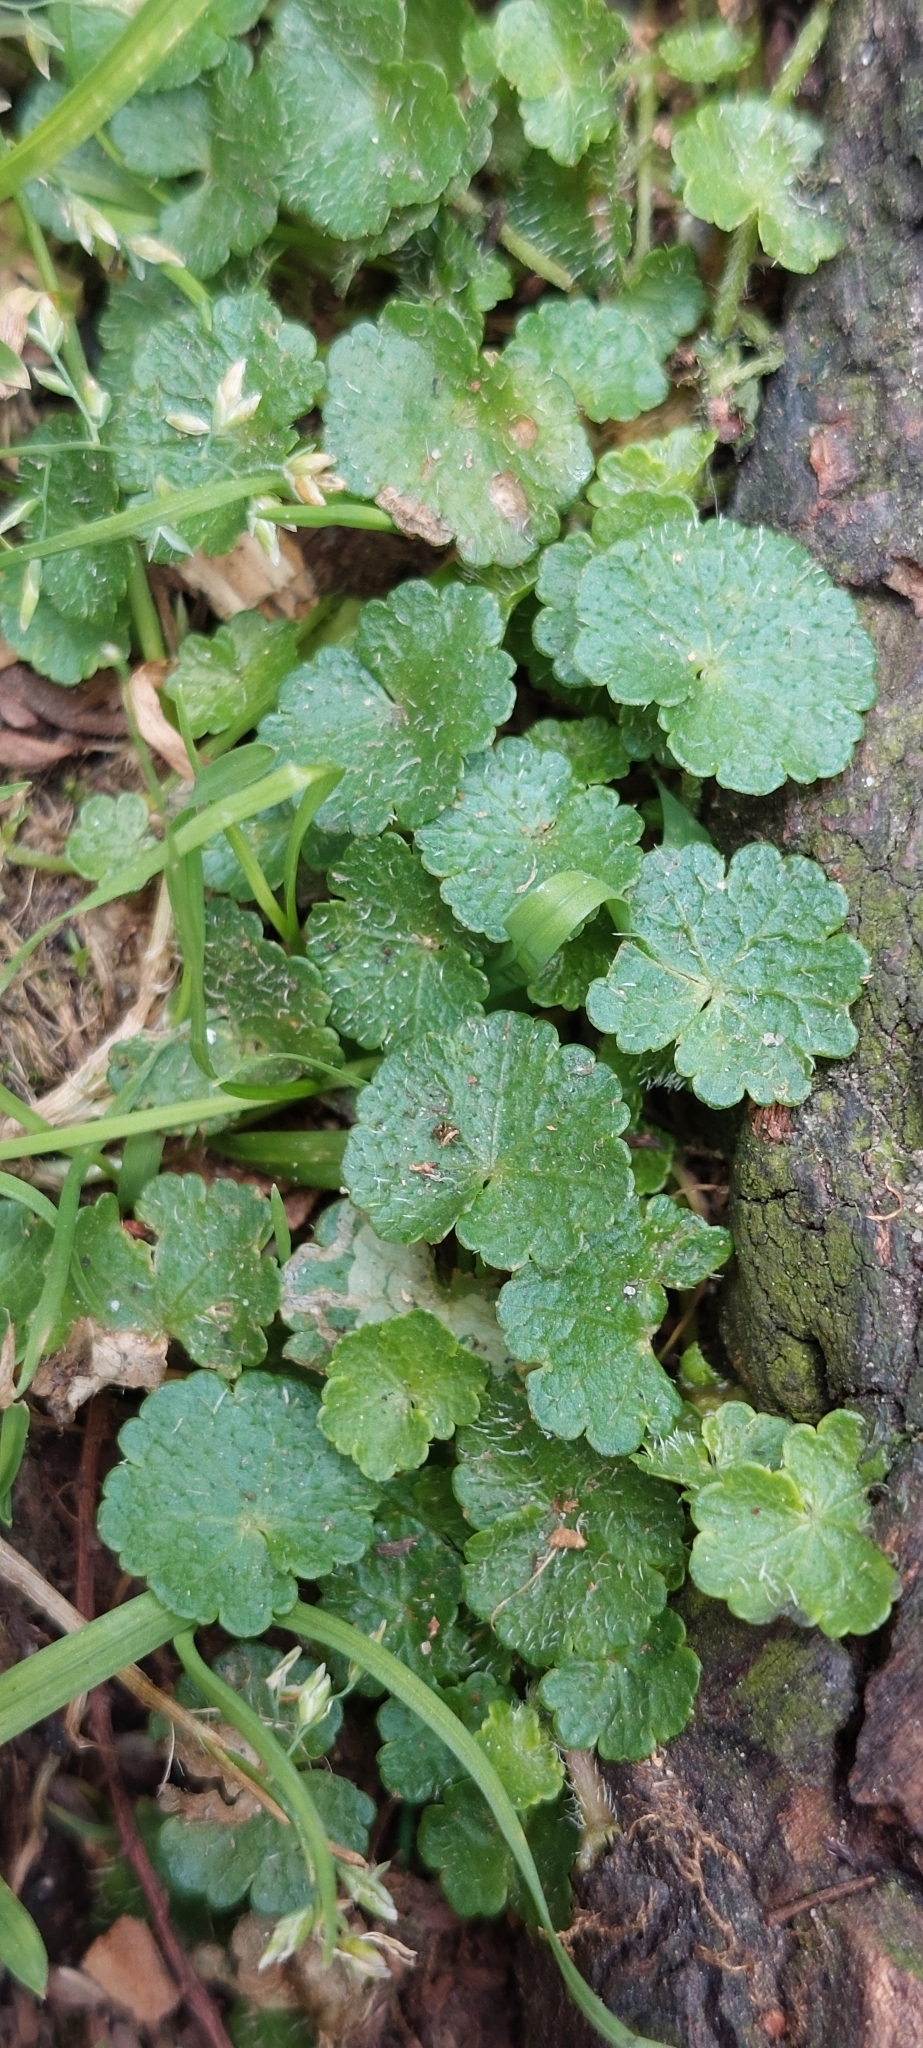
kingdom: Plantae
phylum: Tracheophyta
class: Magnoliopsida
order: Apiales
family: Araliaceae
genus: Hydrocotyle
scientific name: Hydrocotyle bonplandii
